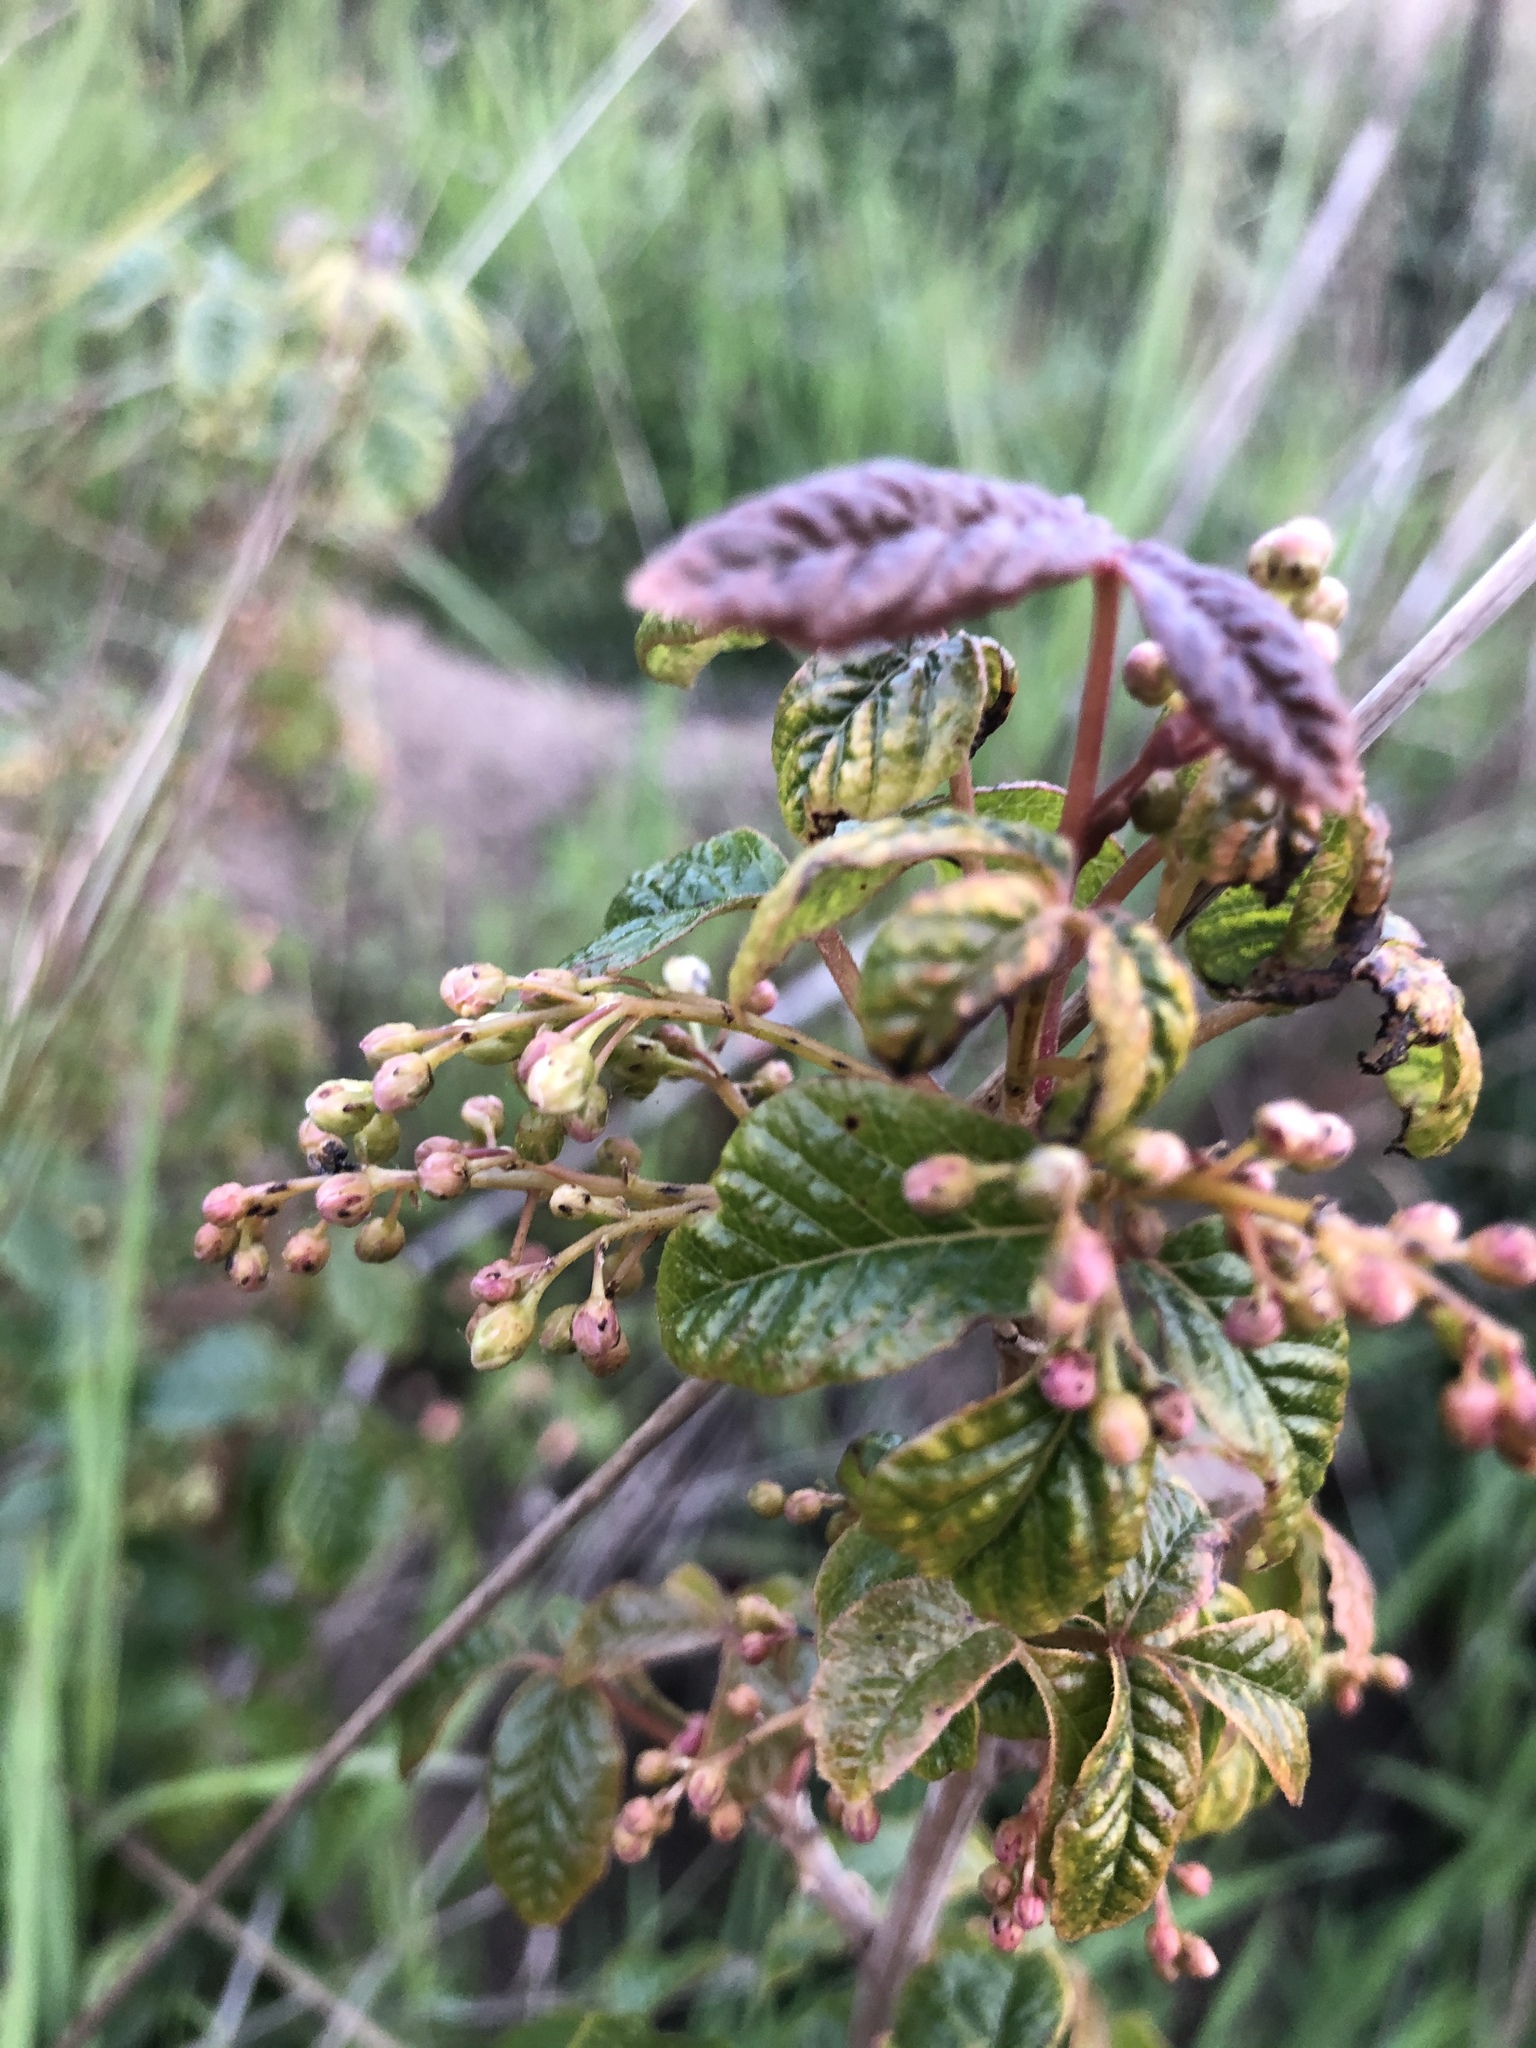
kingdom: Plantae
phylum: Tracheophyta
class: Magnoliopsida
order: Sapindales
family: Anacardiaceae
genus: Toxicodendron
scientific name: Toxicodendron diversilobum
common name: Pacific poison-oak
